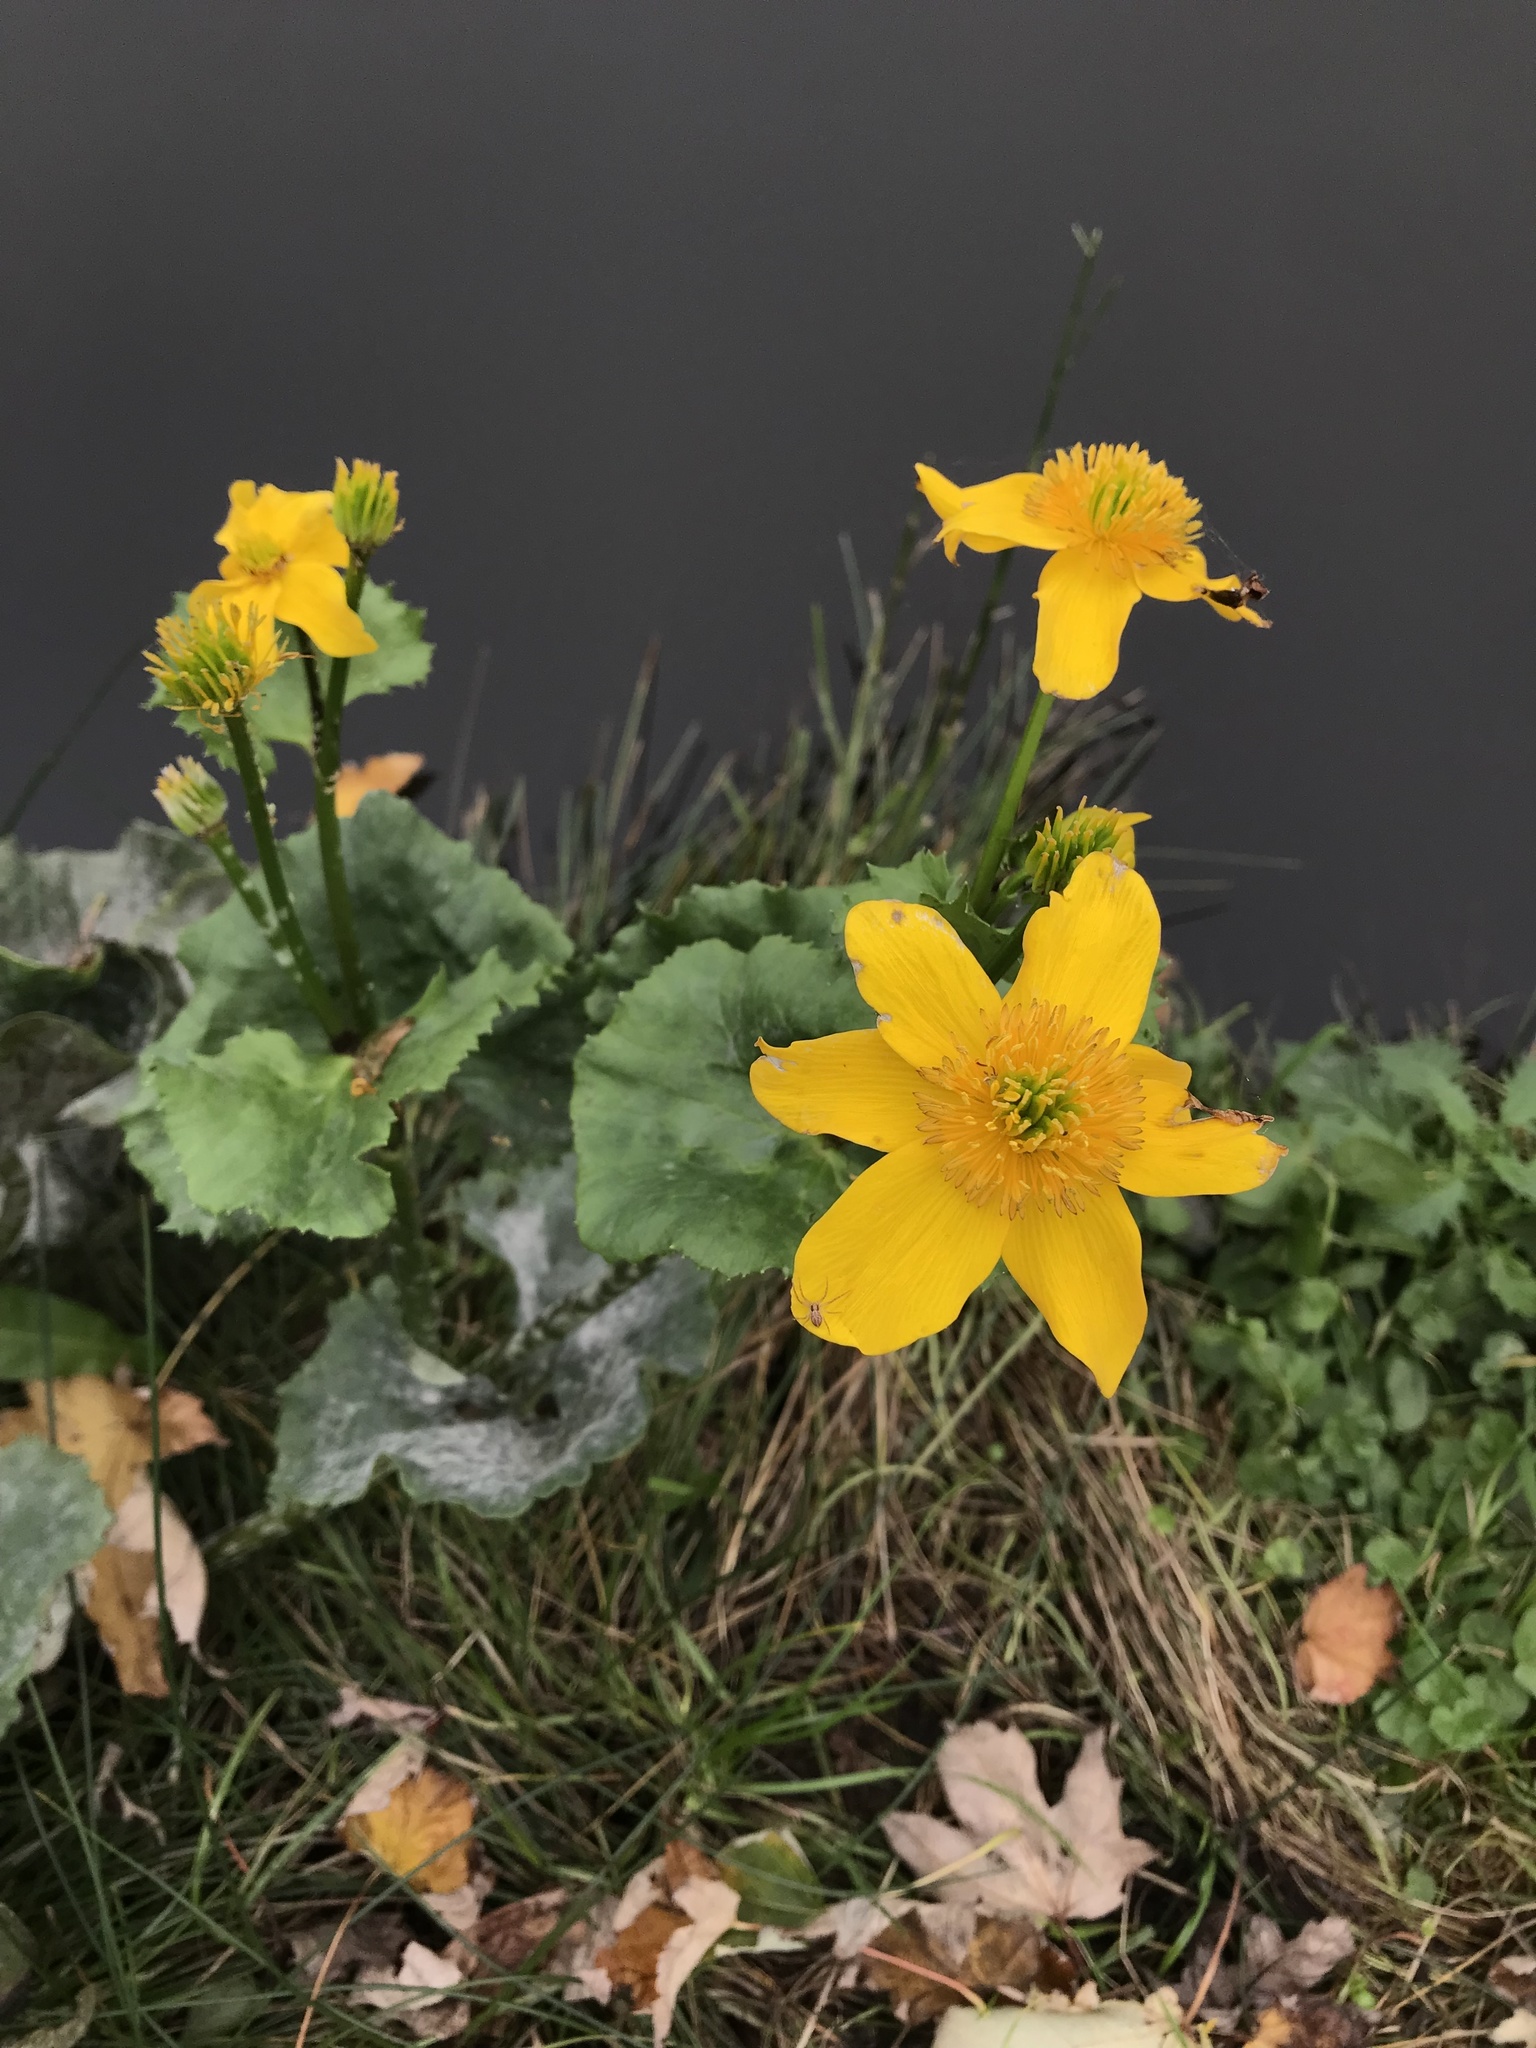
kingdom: Plantae
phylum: Tracheophyta
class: Magnoliopsida
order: Ranunculales
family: Ranunculaceae
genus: Caltha
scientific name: Caltha palustris
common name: Marsh marigold
